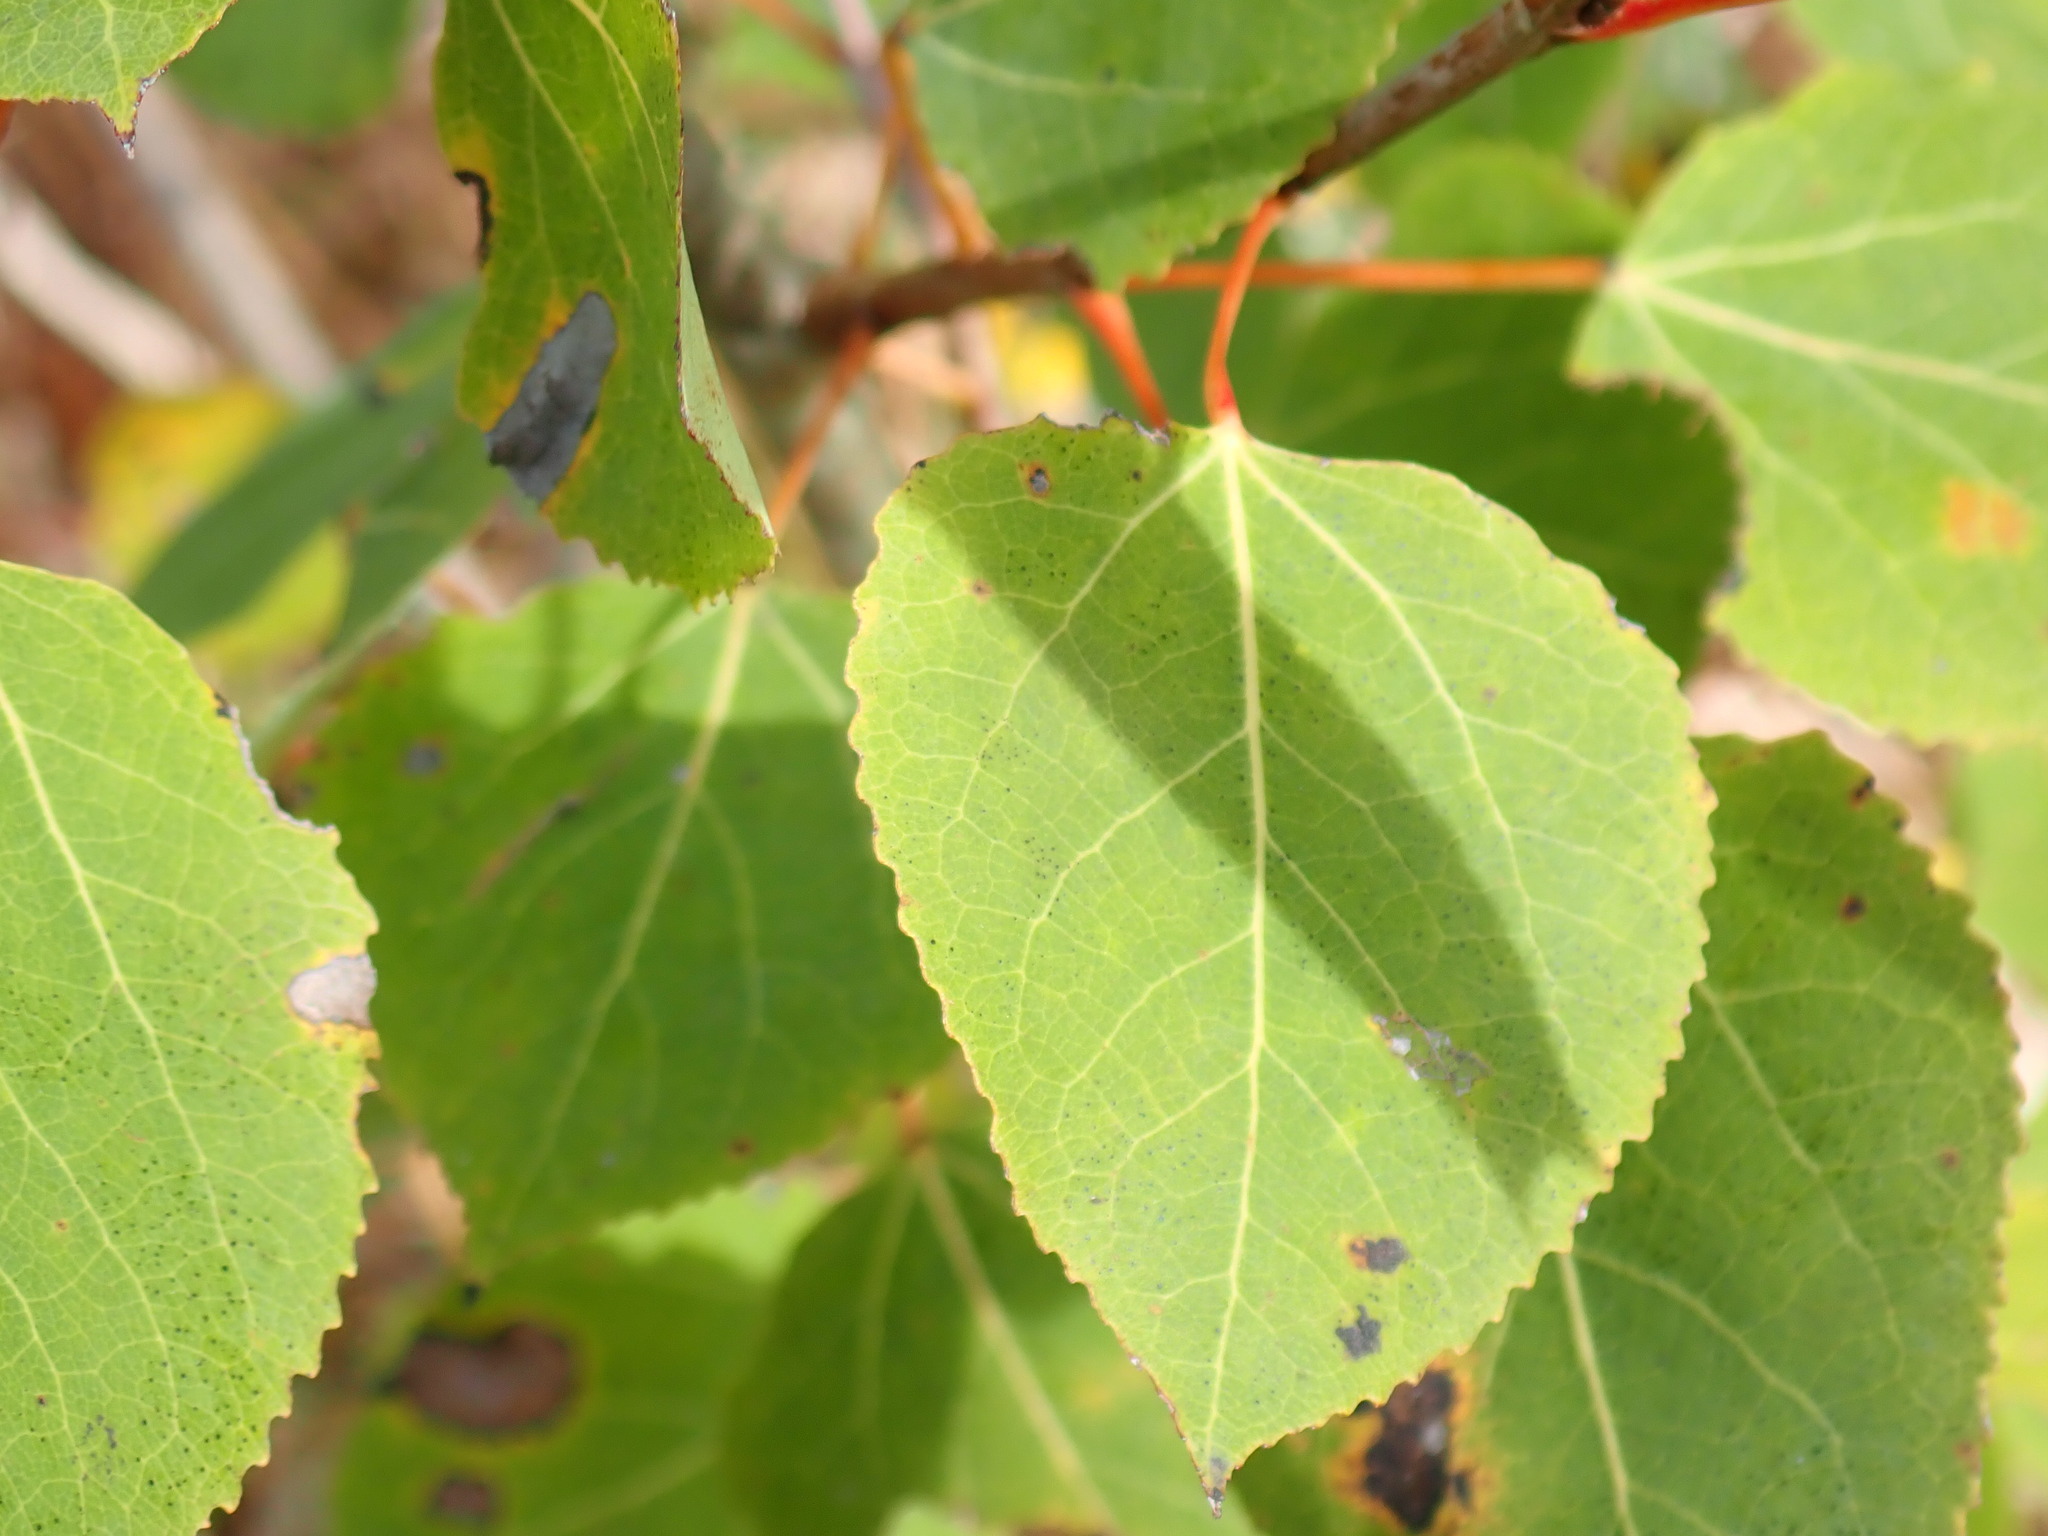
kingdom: Plantae
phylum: Tracheophyta
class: Magnoliopsida
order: Malpighiales
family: Salicaceae
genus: Populus
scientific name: Populus tremuloides
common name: Quaking aspen
